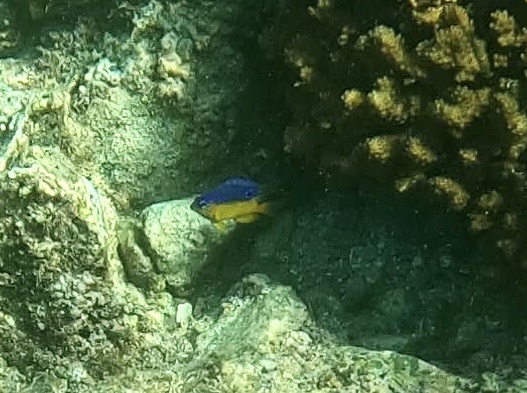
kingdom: Animalia
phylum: Chordata
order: Perciformes
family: Pomacentridae
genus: Stegastes
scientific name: Stegastes flavilatus
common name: Beaubrummel
